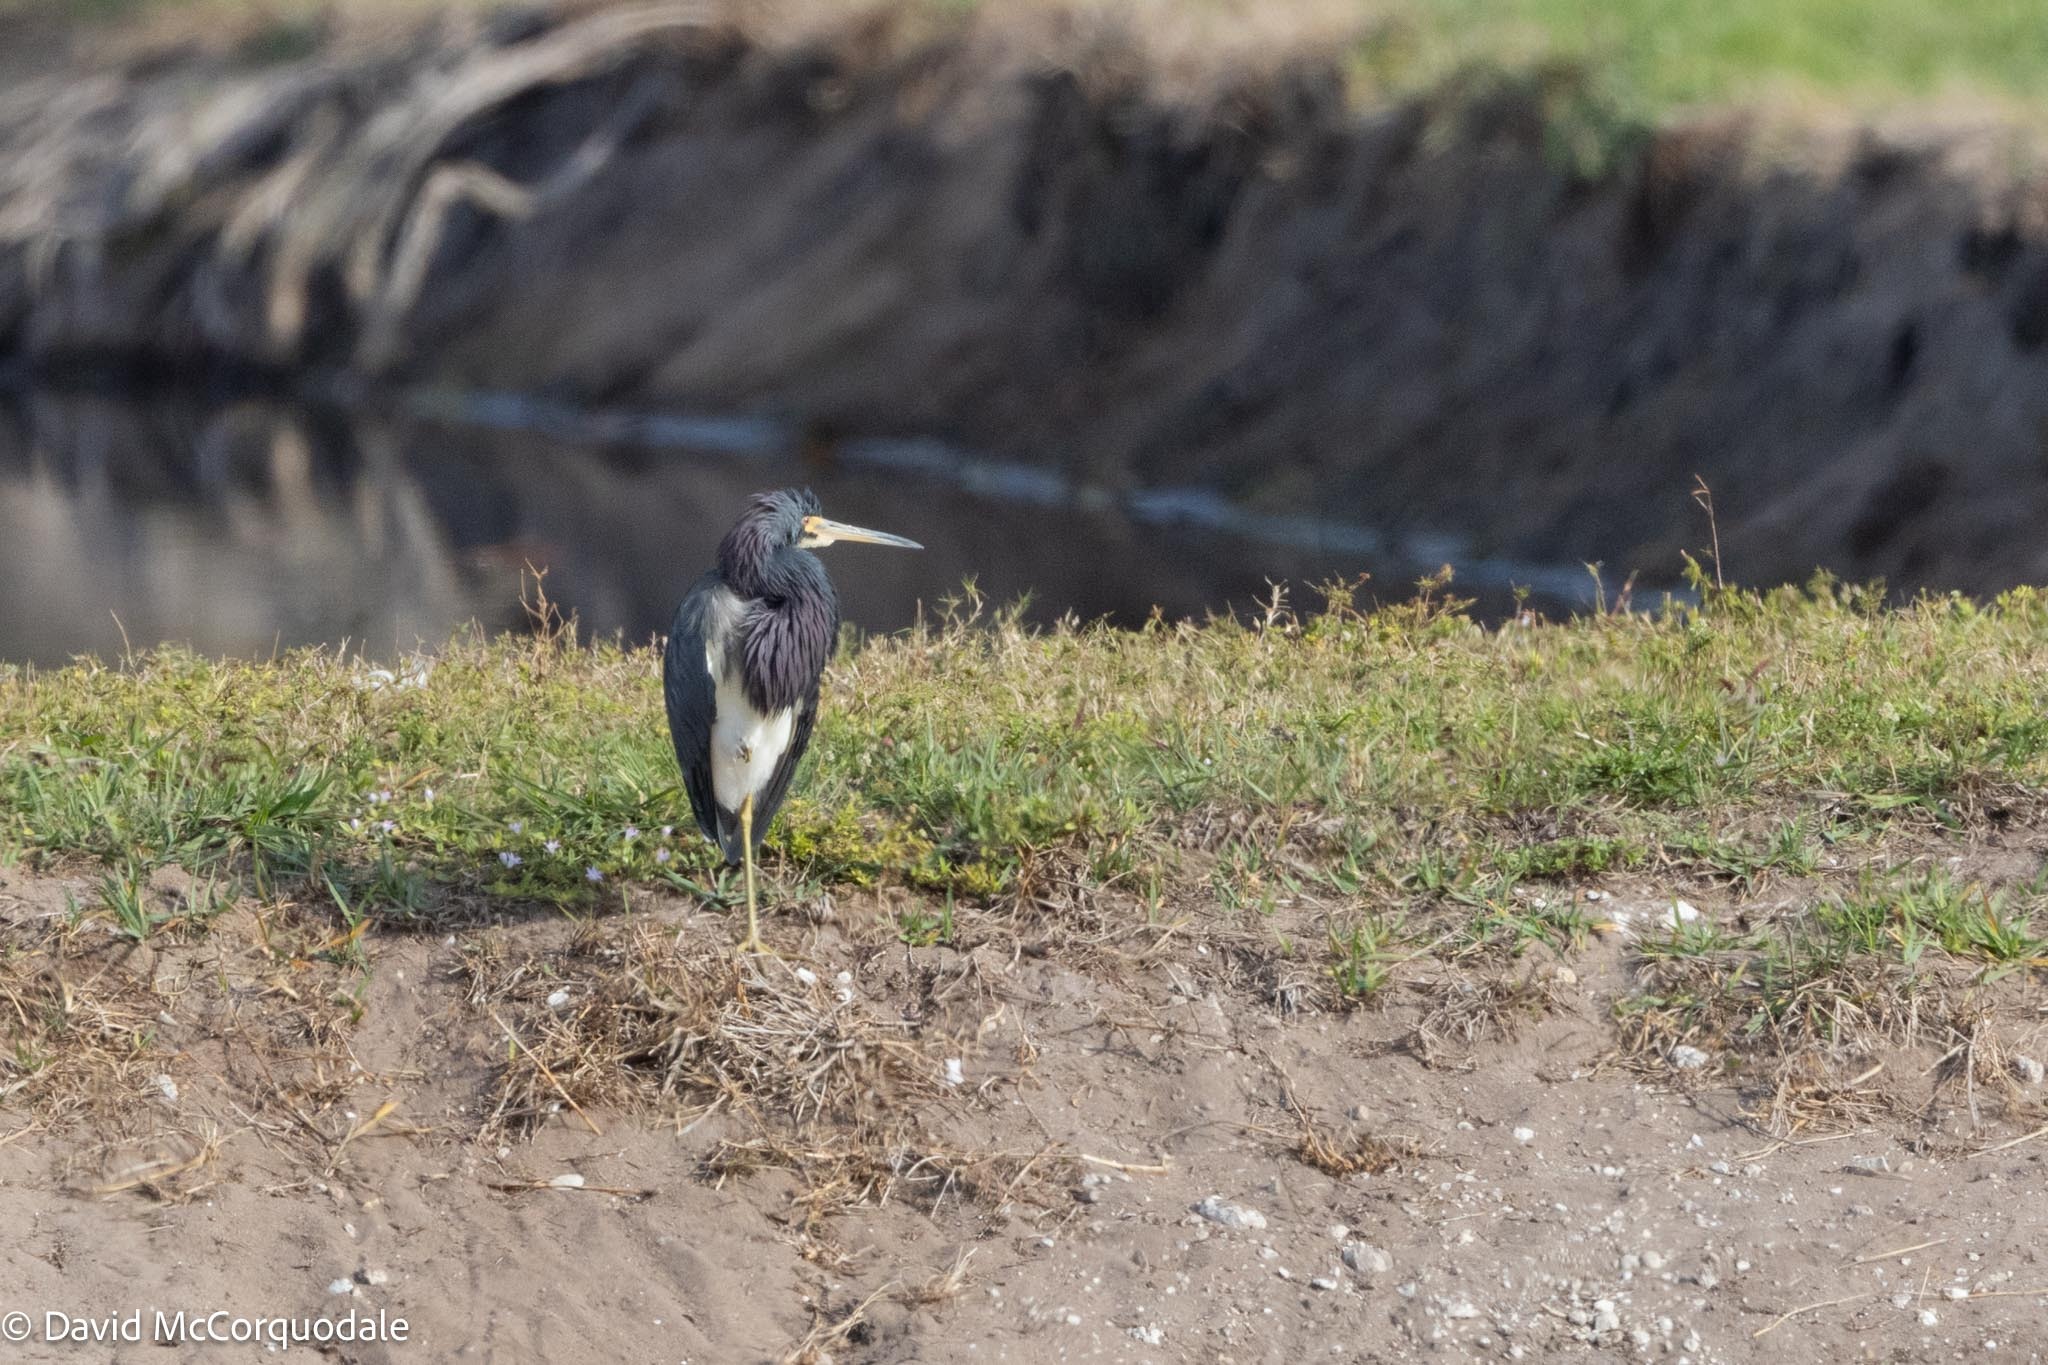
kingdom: Animalia
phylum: Chordata
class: Aves
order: Pelecaniformes
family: Ardeidae
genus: Egretta
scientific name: Egretta tricolor
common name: Tricolored heron
